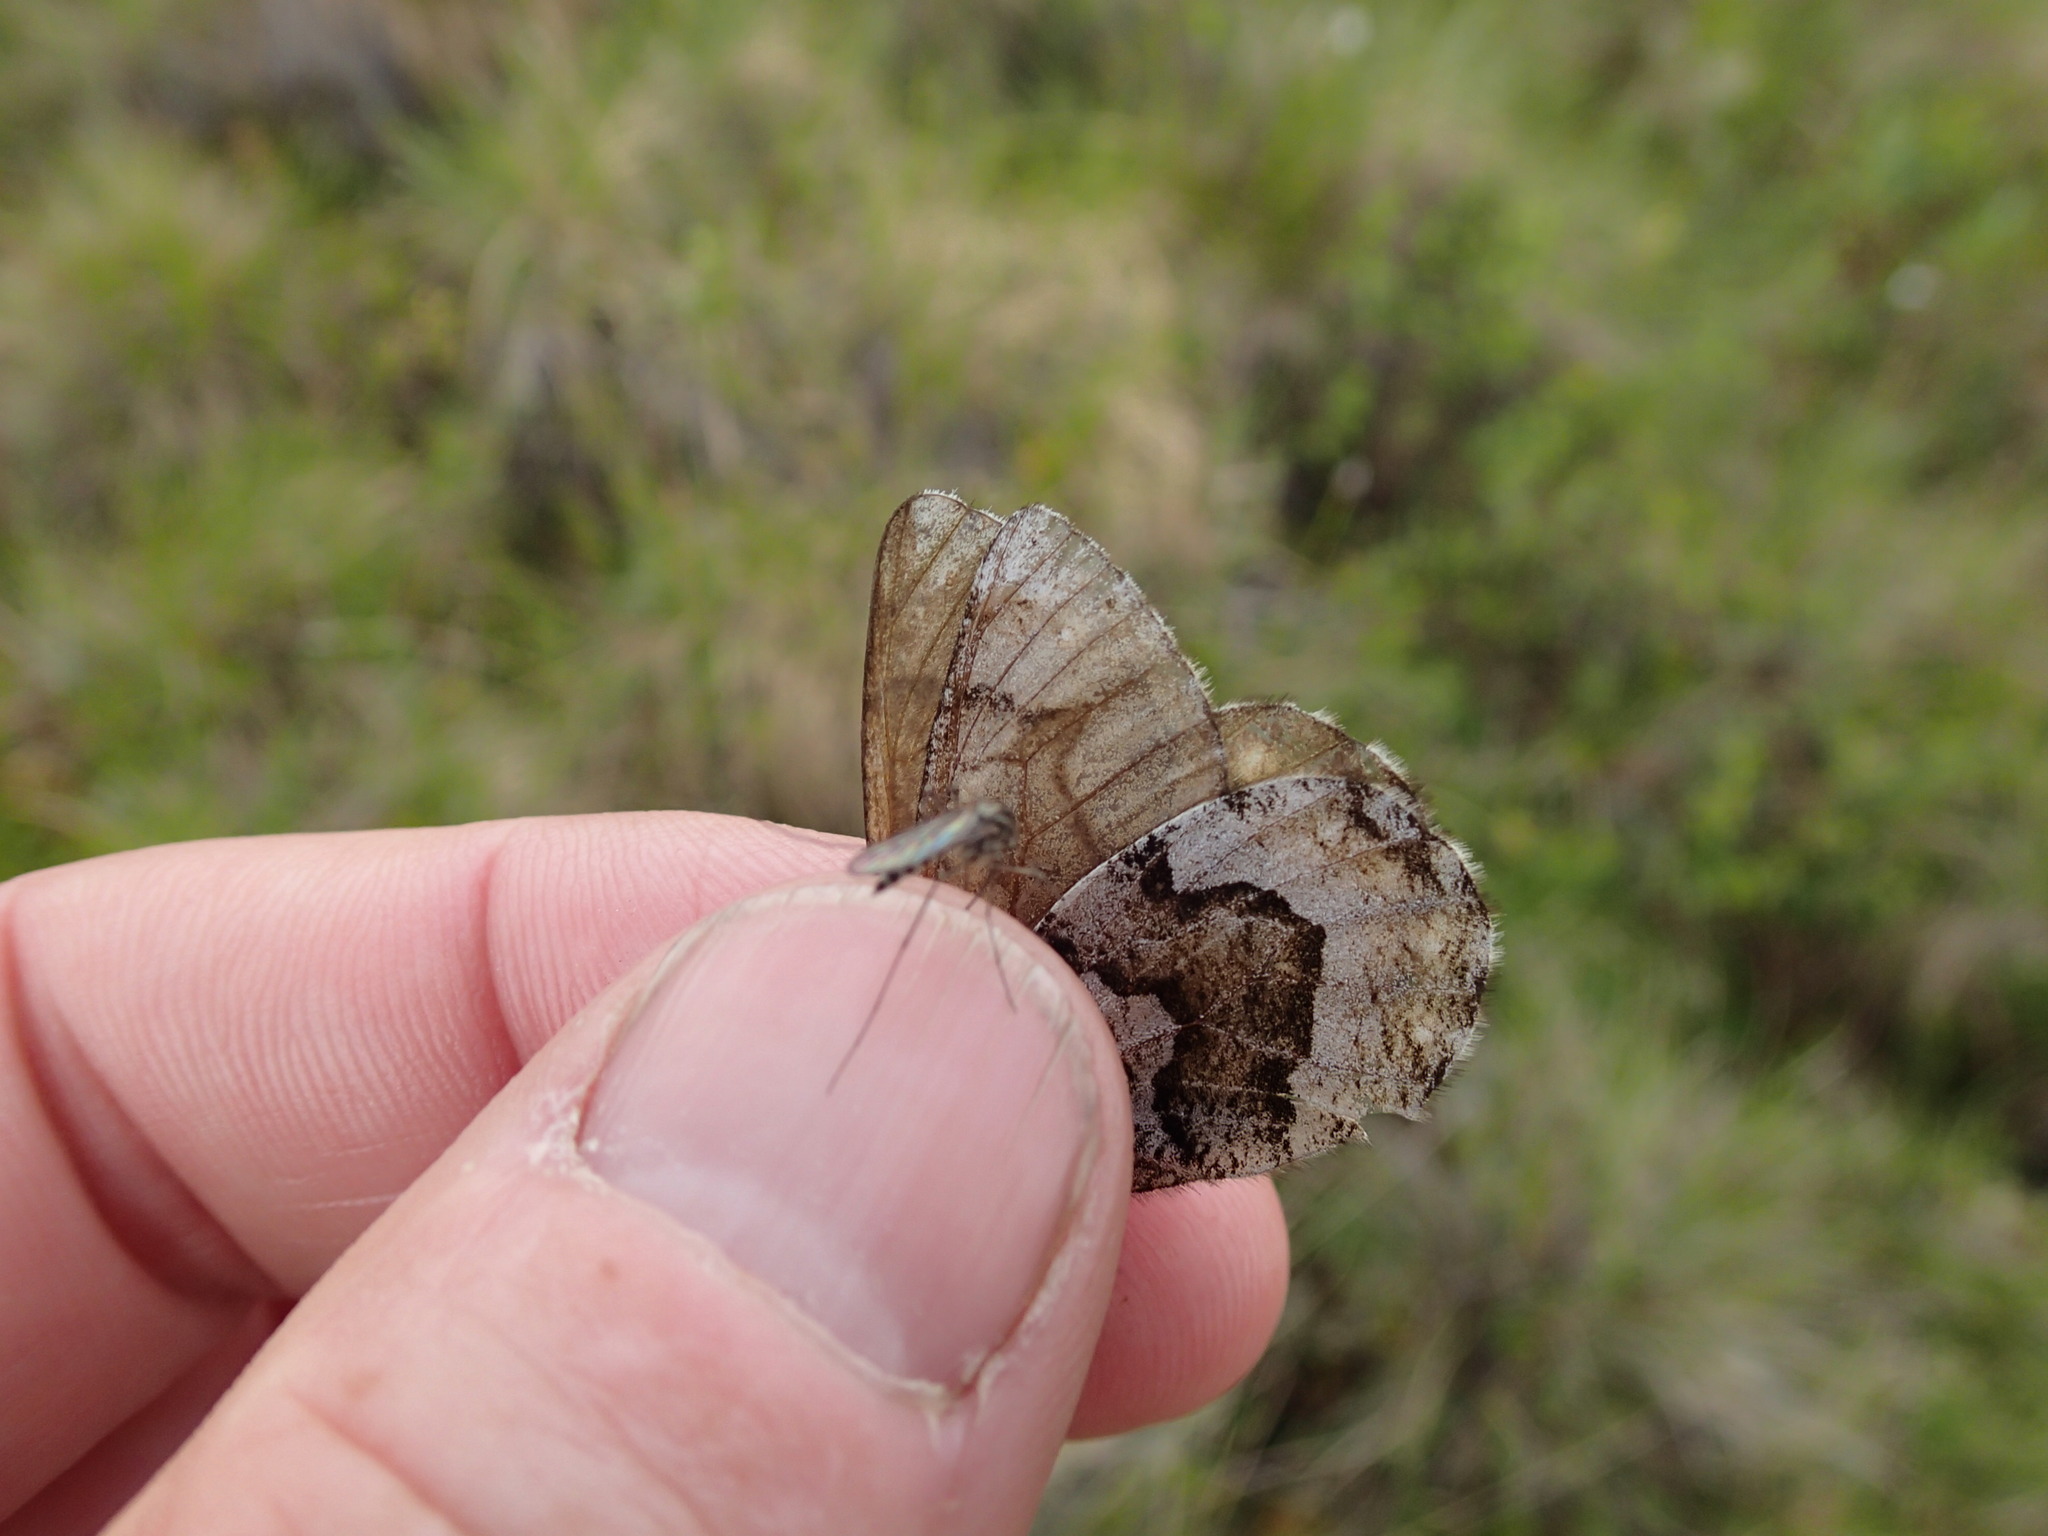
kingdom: Animalia
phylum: Arthropoda
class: Insecta
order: Lepidoptera
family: Nymphalidae
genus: Oeneis
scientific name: Oeneis bore
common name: Arctic grayling
